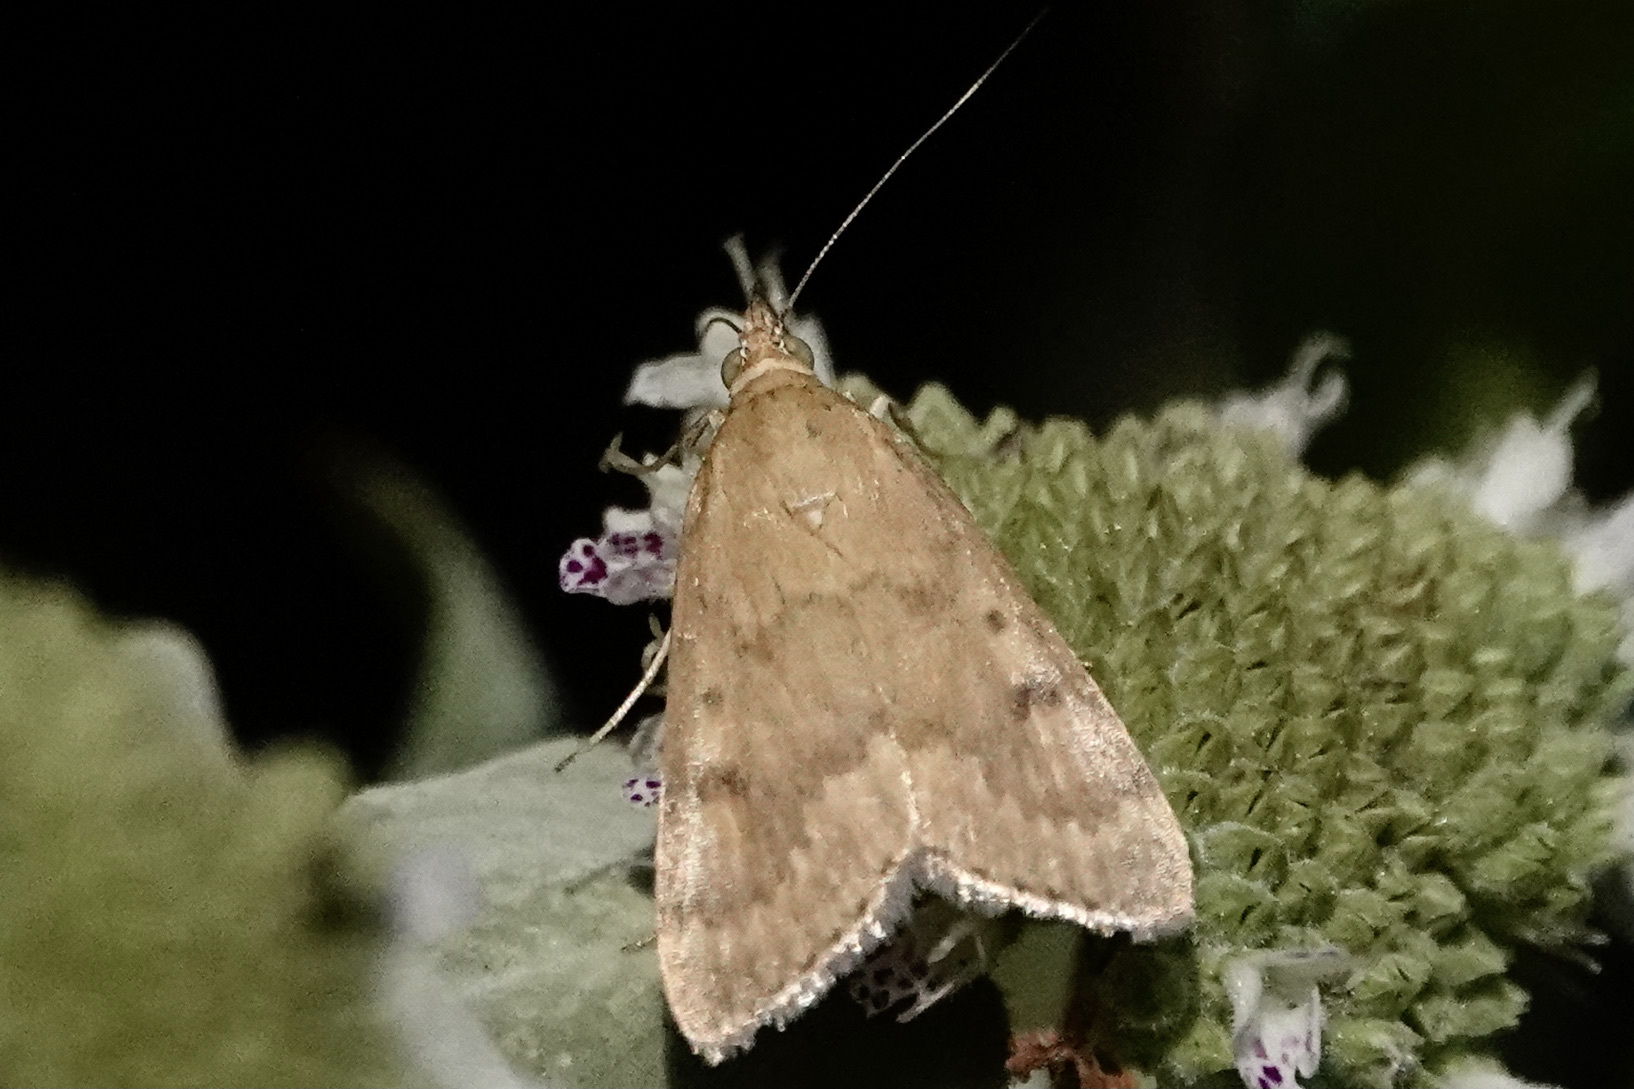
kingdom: Animalia
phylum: Arthropoda
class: Insecta
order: Lepidoptera
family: Crambidae
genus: Achyra
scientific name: Achyra rantalis
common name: Garden webworm
